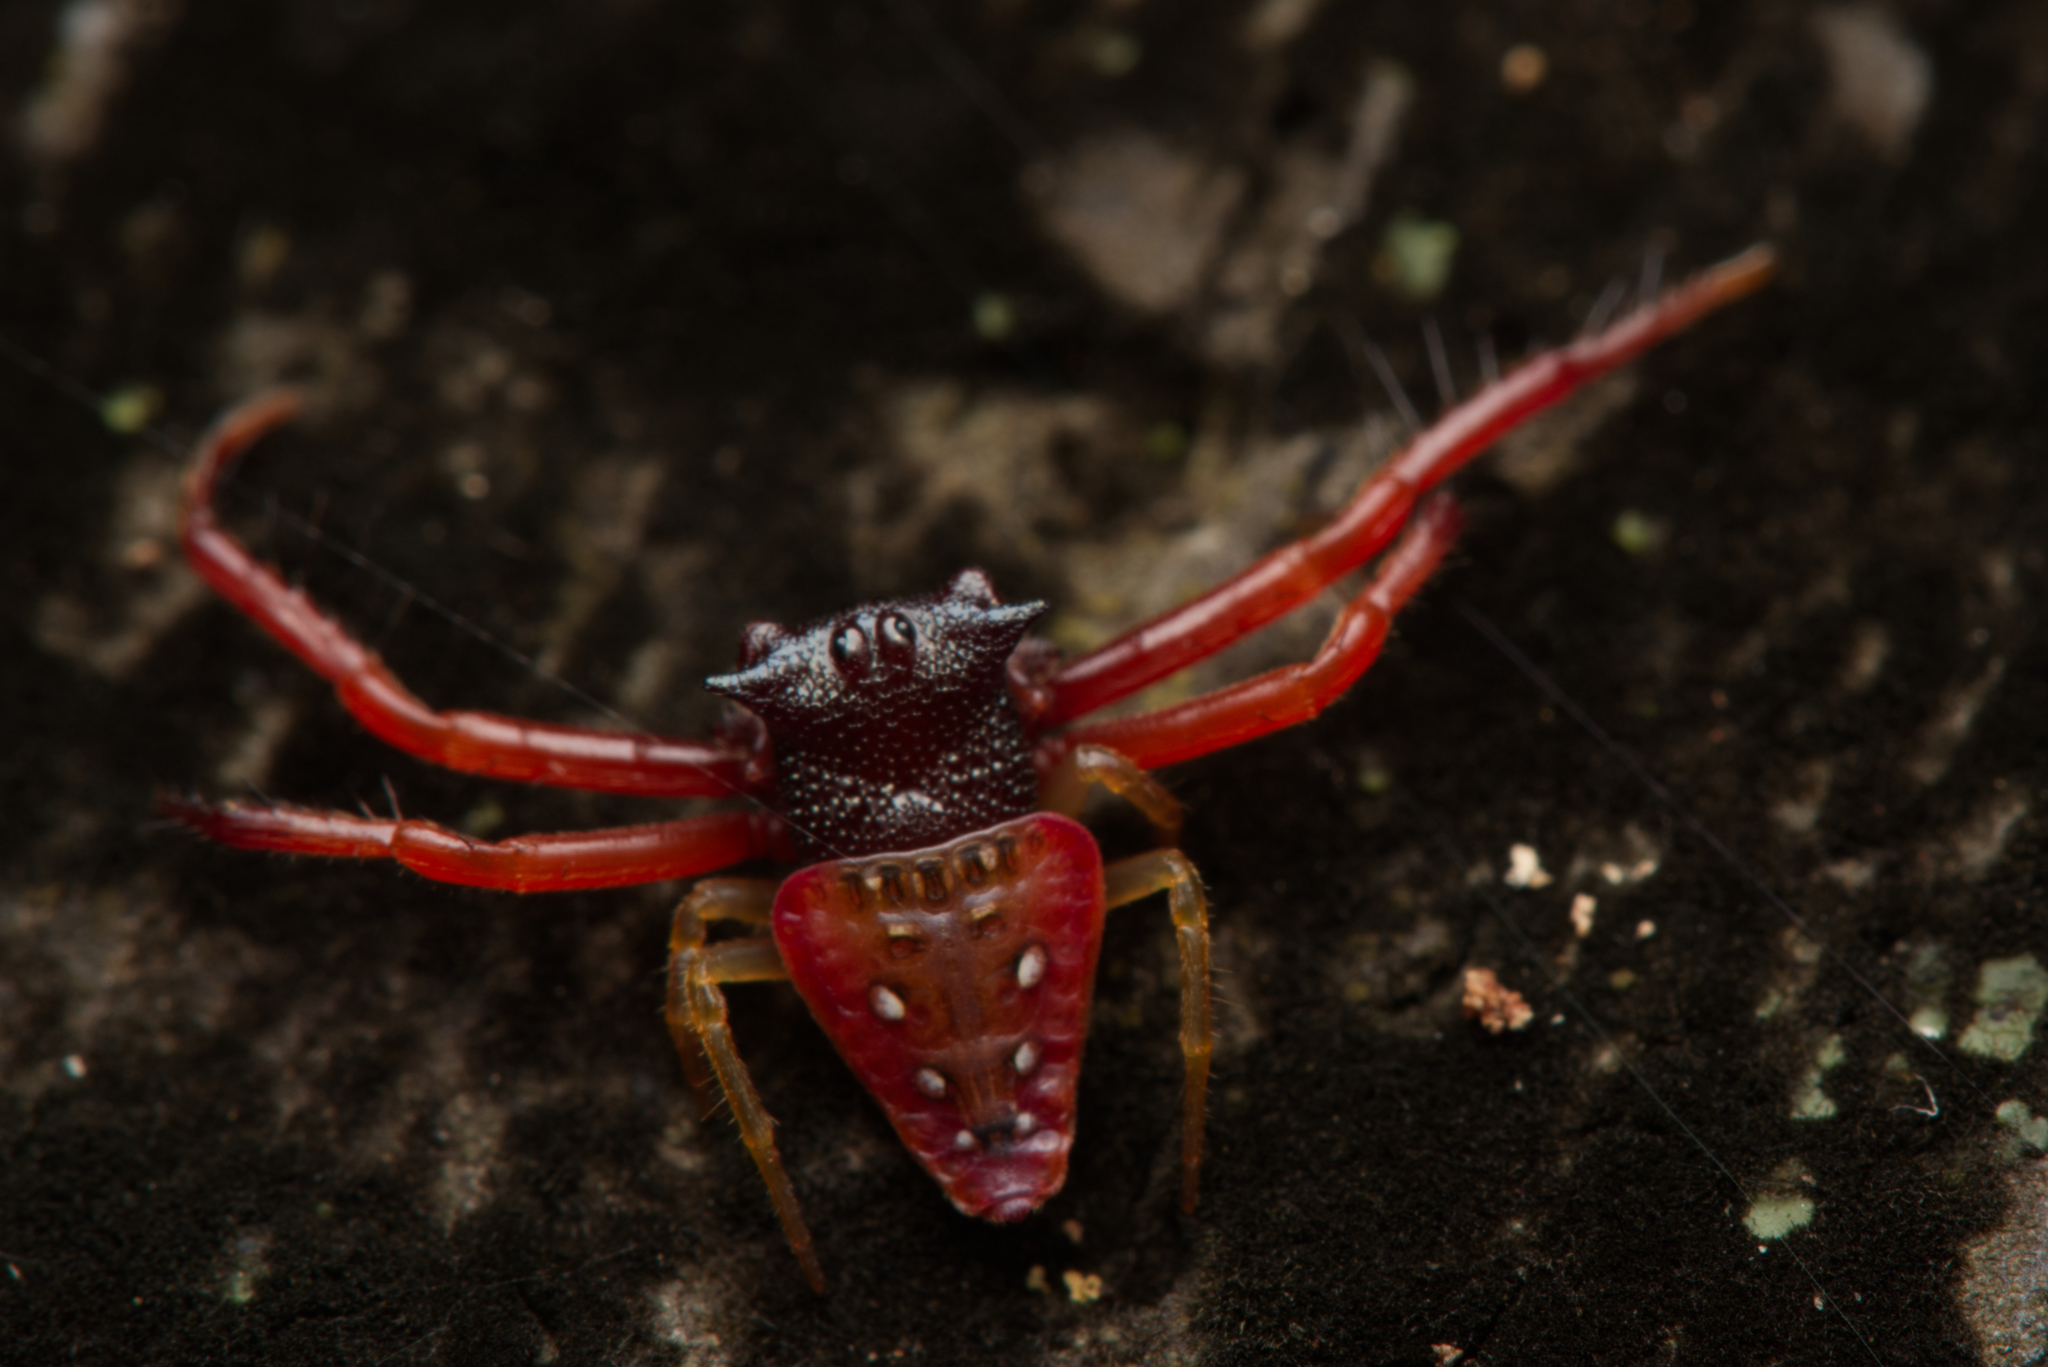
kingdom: Animalia
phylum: Arthropoda
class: Arachnida
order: Araneae
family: Arkyidae
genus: Arkys
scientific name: Arkys cornutus
